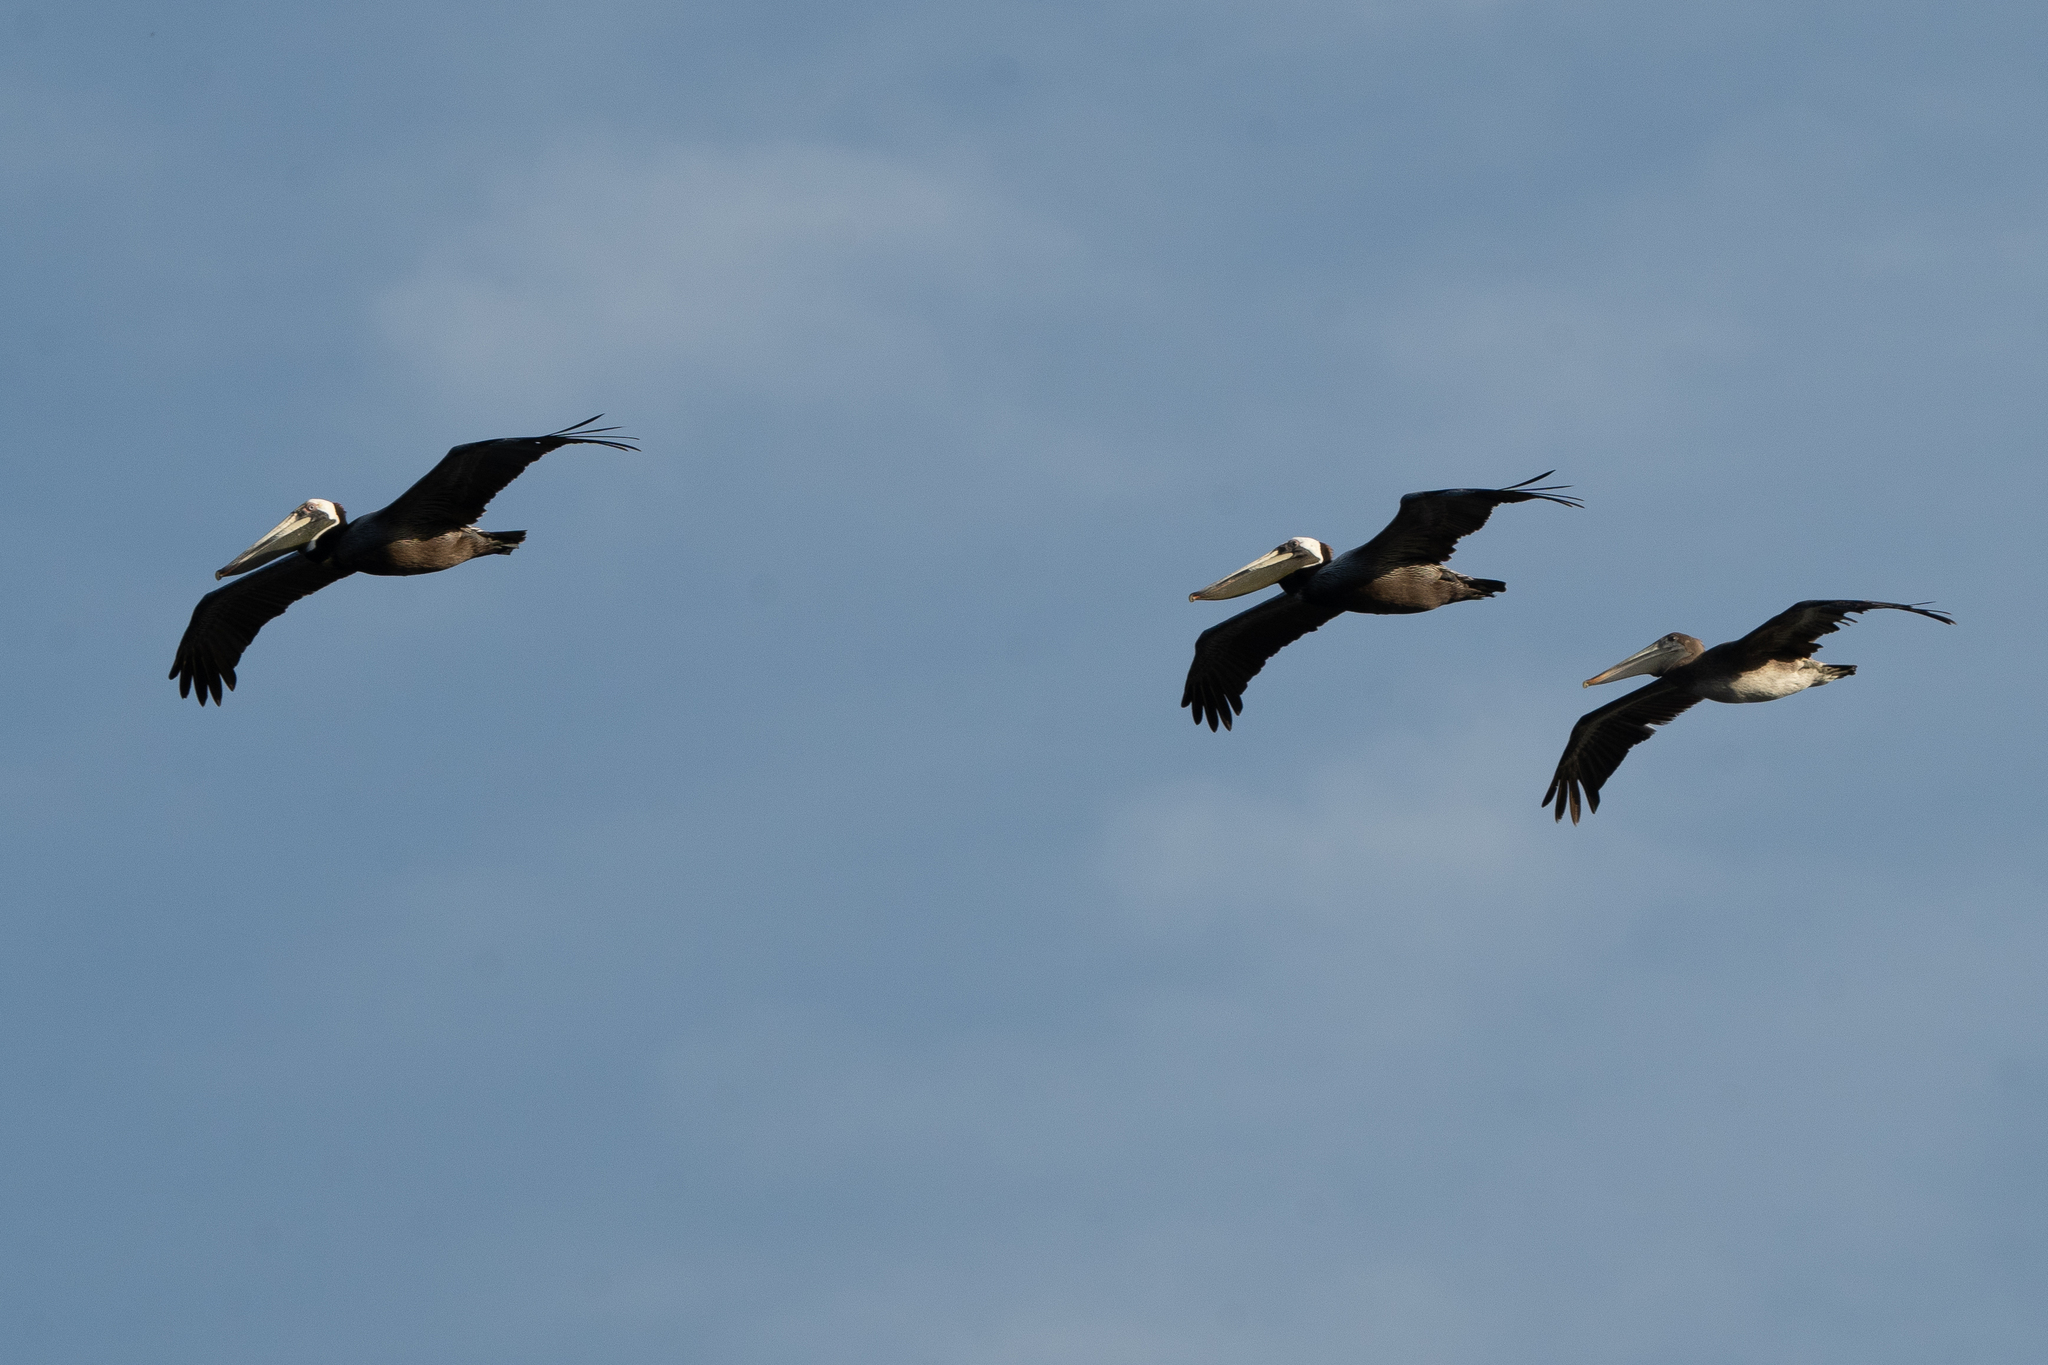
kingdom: Animalia
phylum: Chordata
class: Aves
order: Pelecaniformes
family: Pelecanidae
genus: Pelecanus
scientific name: Pelecanus occidentalis
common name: Brown pelican
